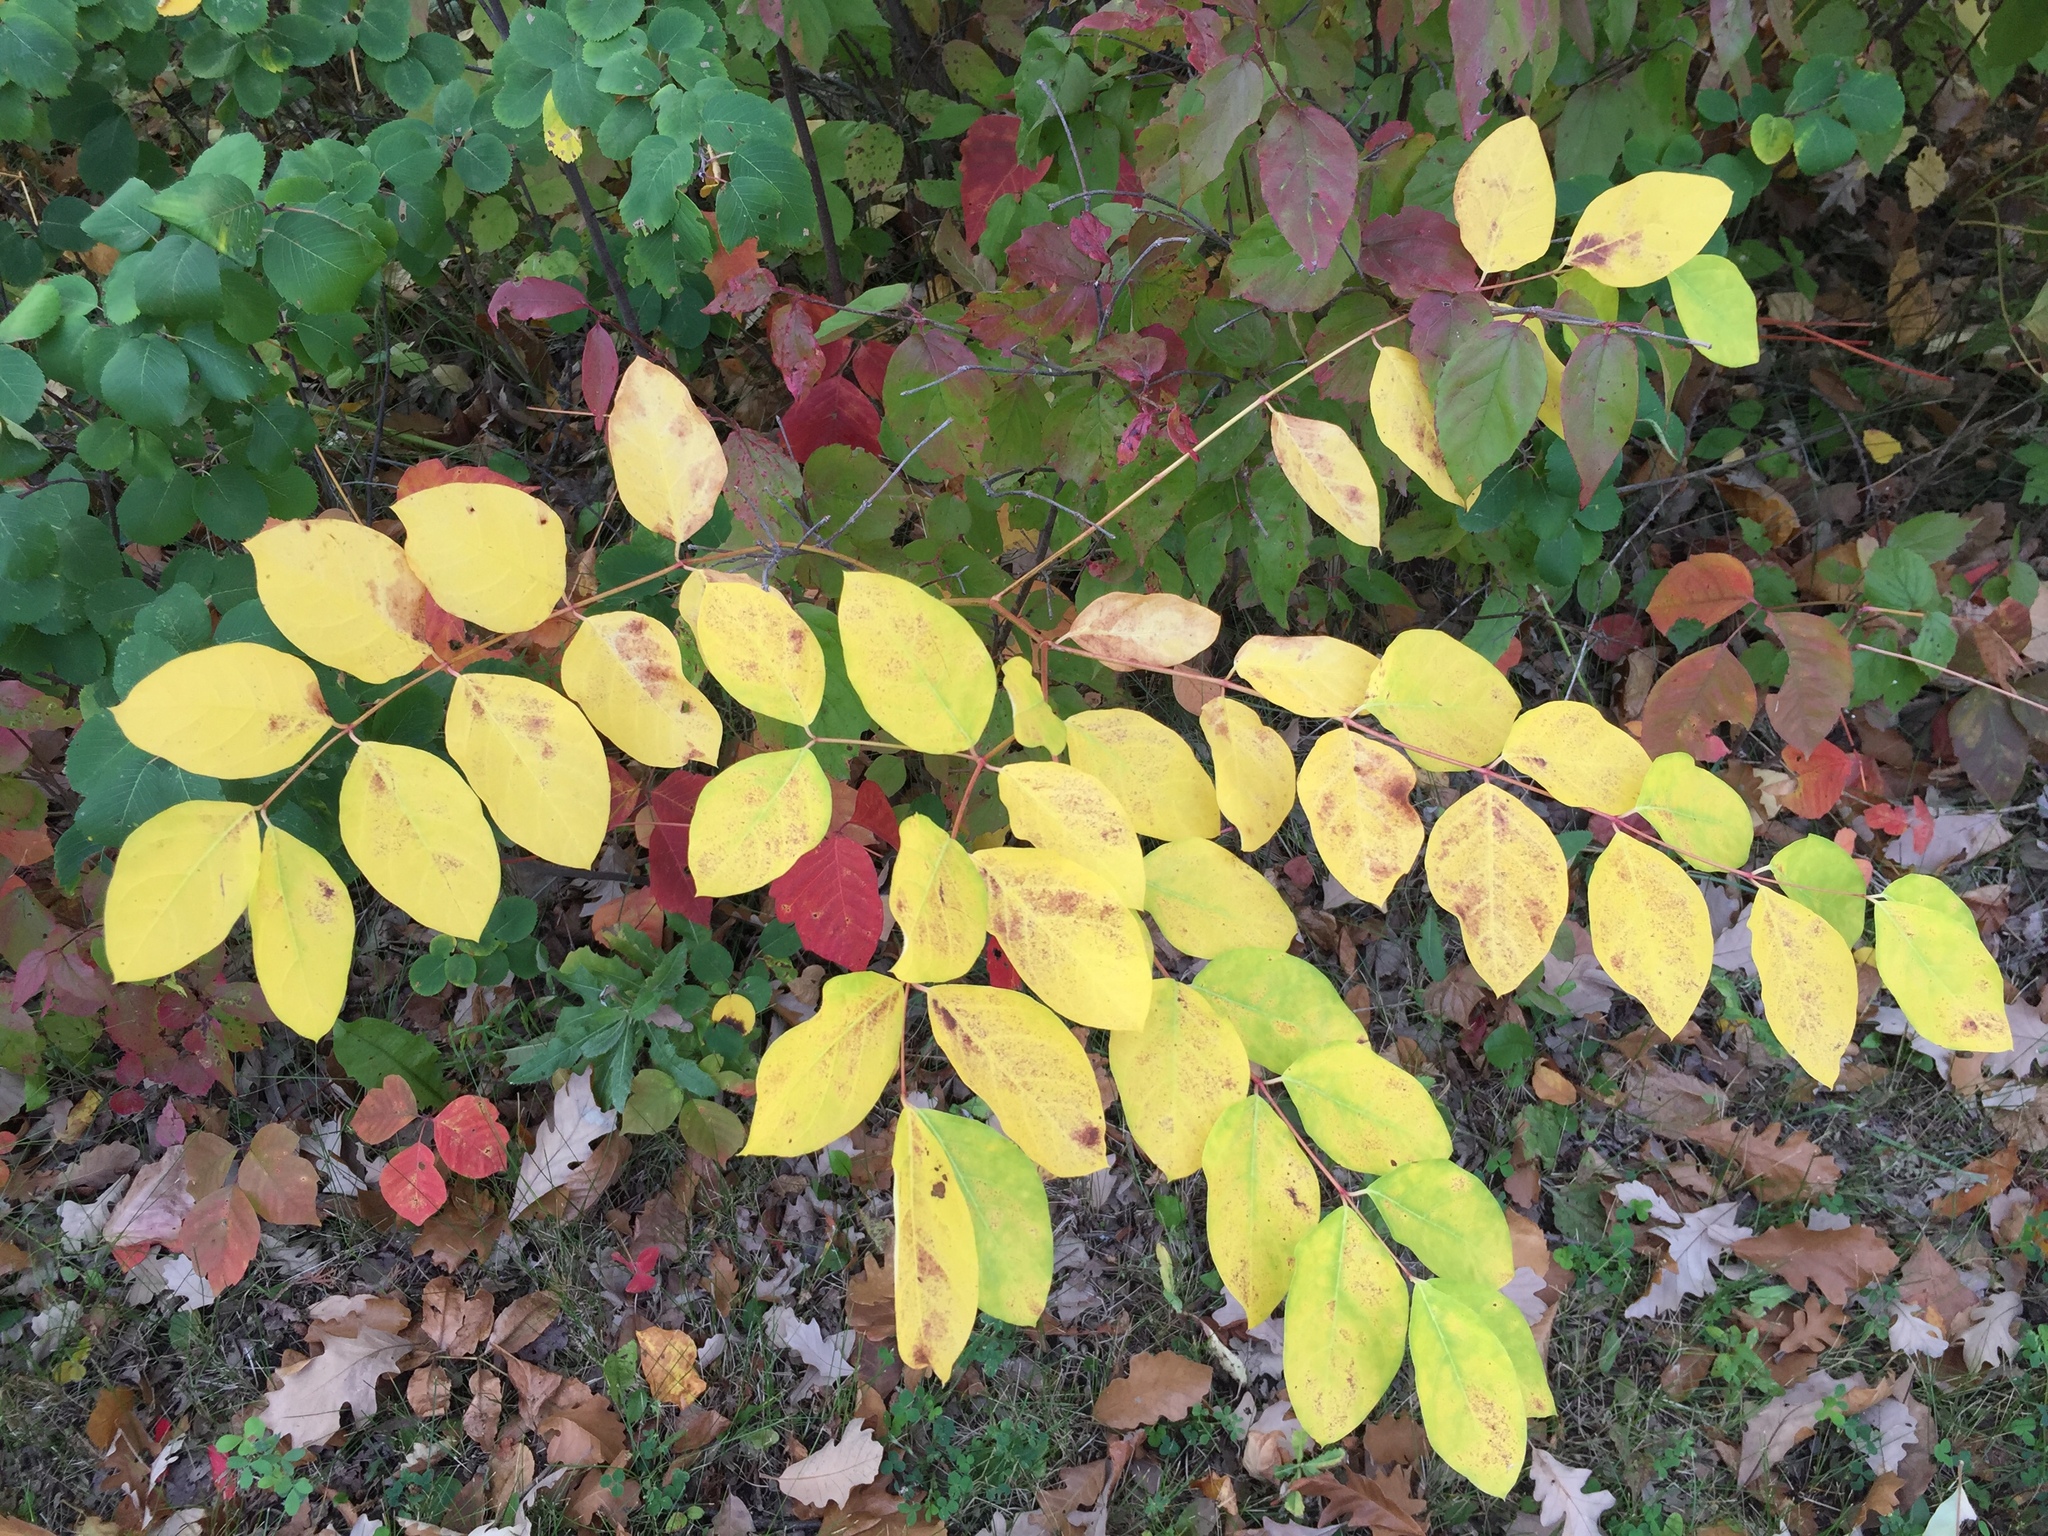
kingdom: Plantae
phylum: Tracheophyta
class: Magnoliopsida
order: Gentianales
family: Apocynaceae
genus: Apocynum
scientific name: Apocynum androsaemifolium
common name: Spreading dogbane
